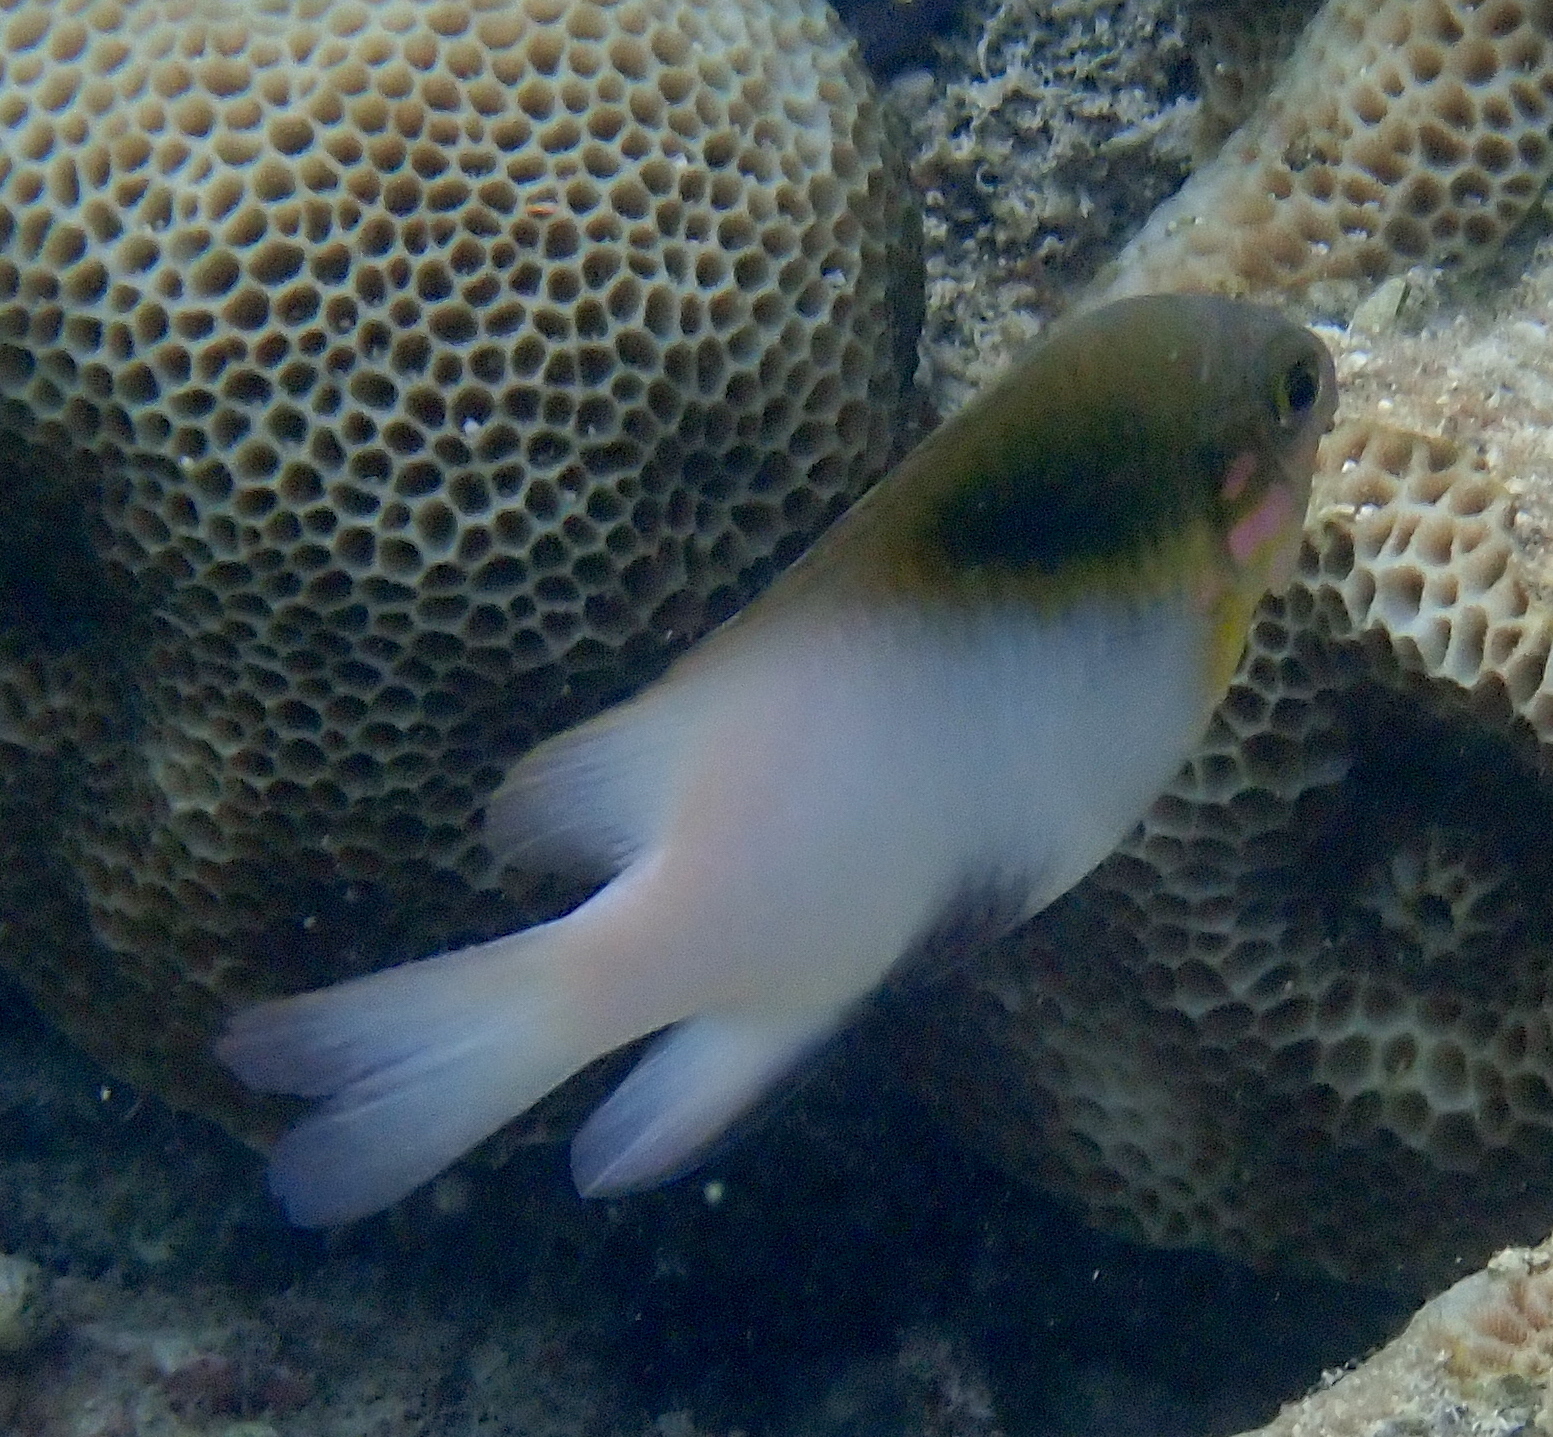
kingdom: Animalia
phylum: Chordata
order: Perciformes
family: Pomacentridae
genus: Dischistodus
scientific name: Dischistodus melanotus
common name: Black-vent damsel
